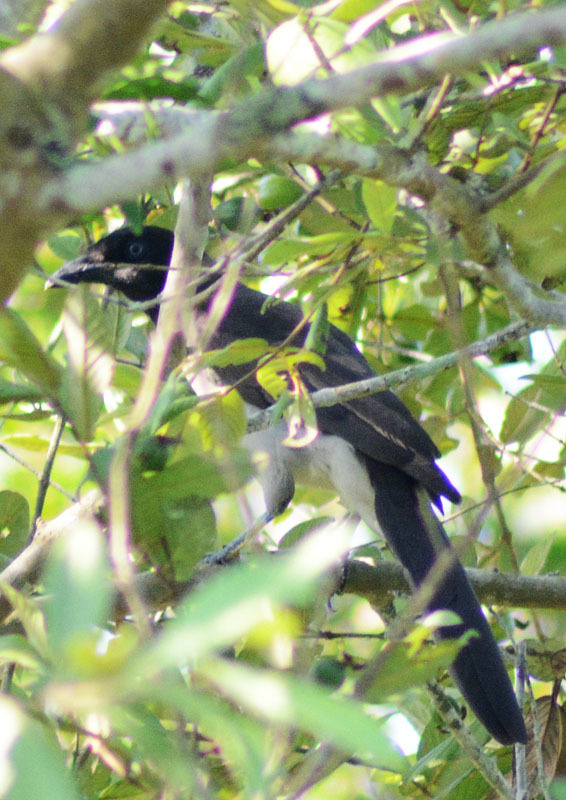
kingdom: Animalia
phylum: Chordata
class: Aves
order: Passeriformes
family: Corvidae
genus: Psilorhinus
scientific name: Psilorhinus morio
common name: Brown jay
